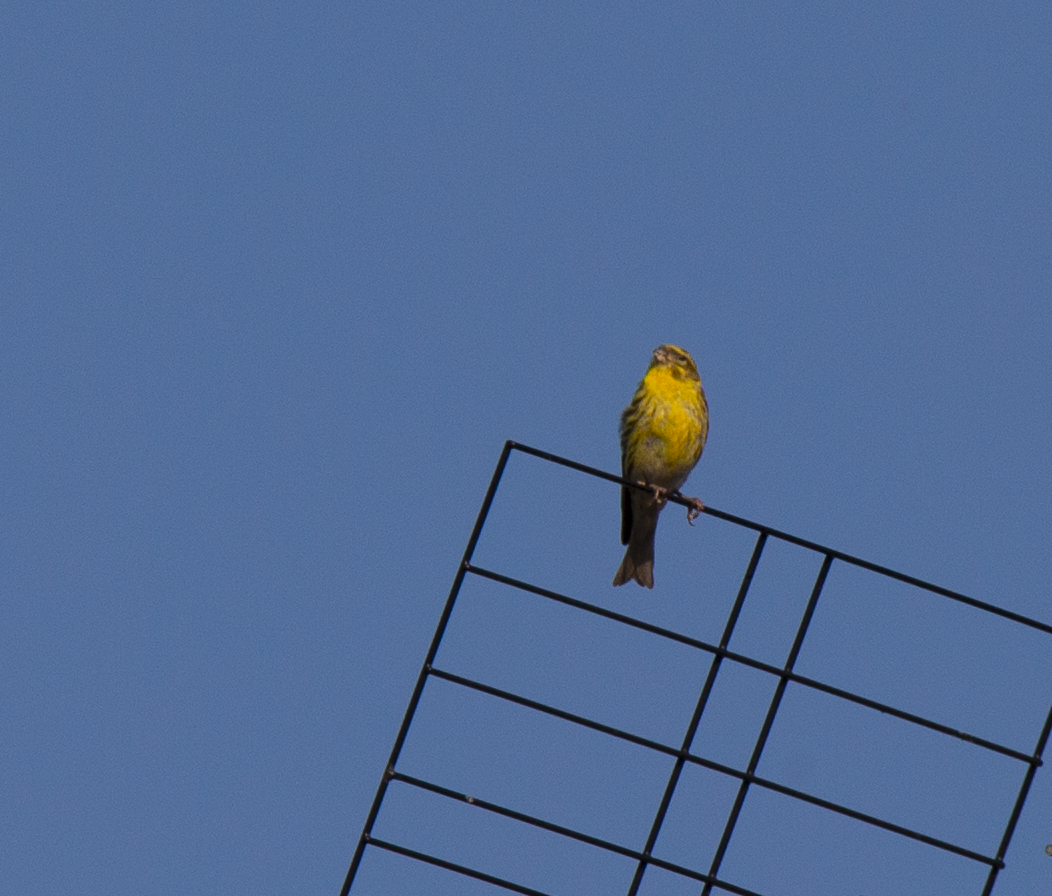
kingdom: Animalia
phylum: Chordata
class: Aves
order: Passeriformes
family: Fringillidae
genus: Serinus
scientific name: Serinus serinus
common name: European serin
